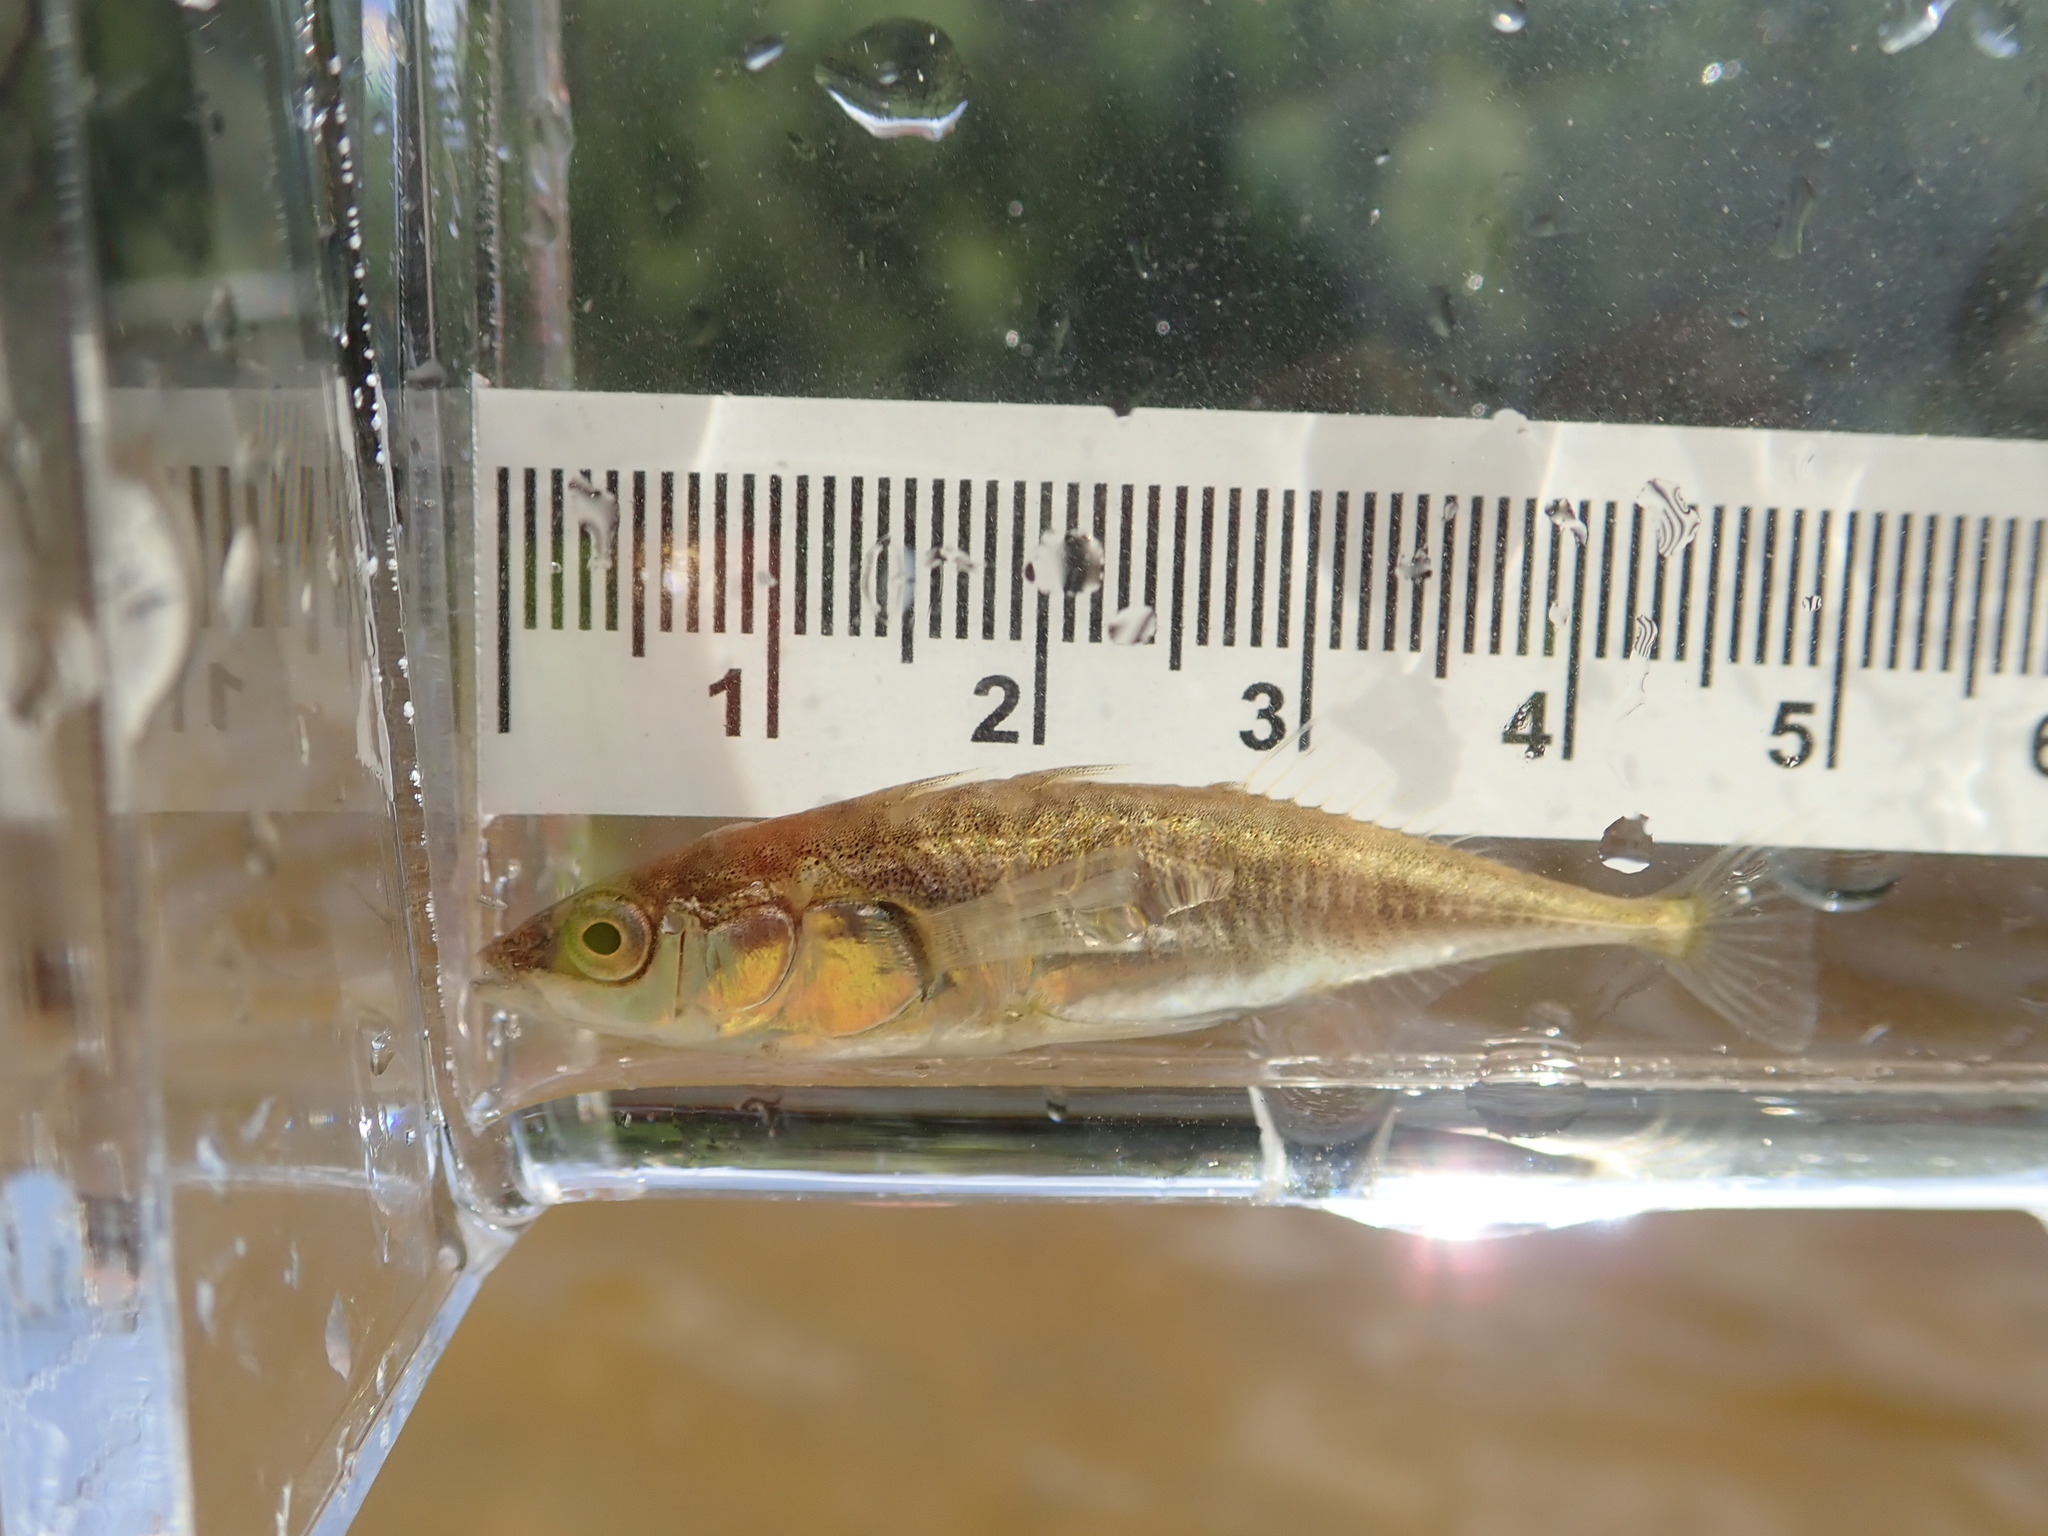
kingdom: Animalia
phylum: Chordata
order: Gasterosteiformes
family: Gasterosteidae
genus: Gasterosteus
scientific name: Gasterosteus aculeatus
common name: Three-spined stickleback
